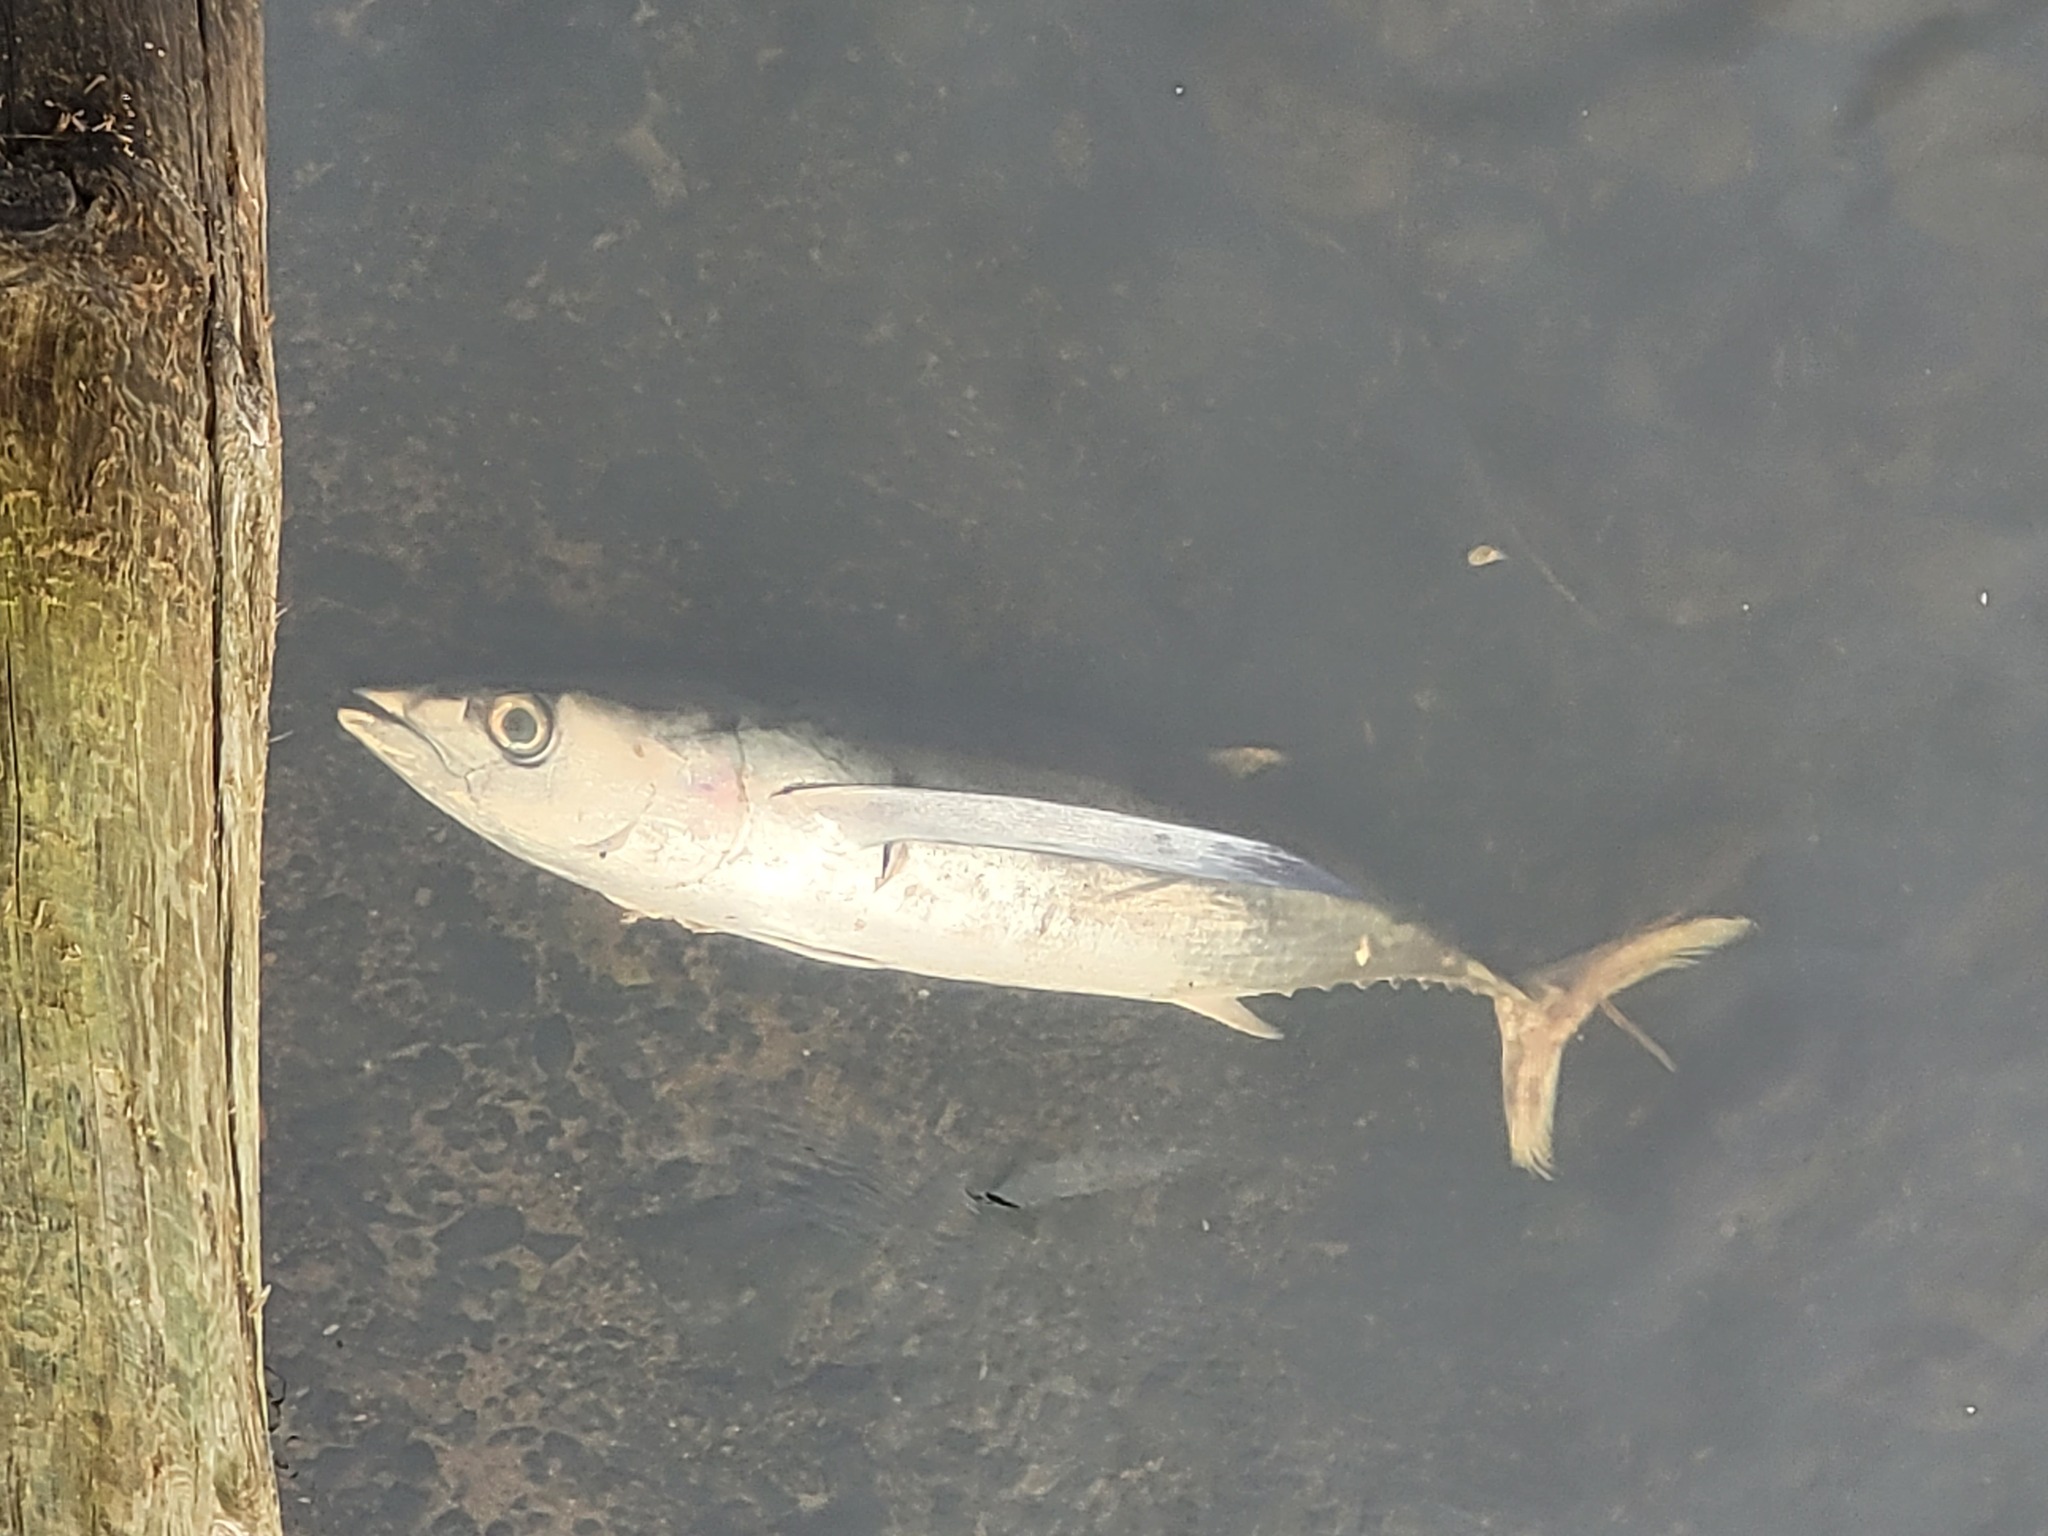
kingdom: Animalia
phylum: Chordata
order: Perciformes
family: Scombridae
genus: Thunnus
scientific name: Thunnus alalunga
